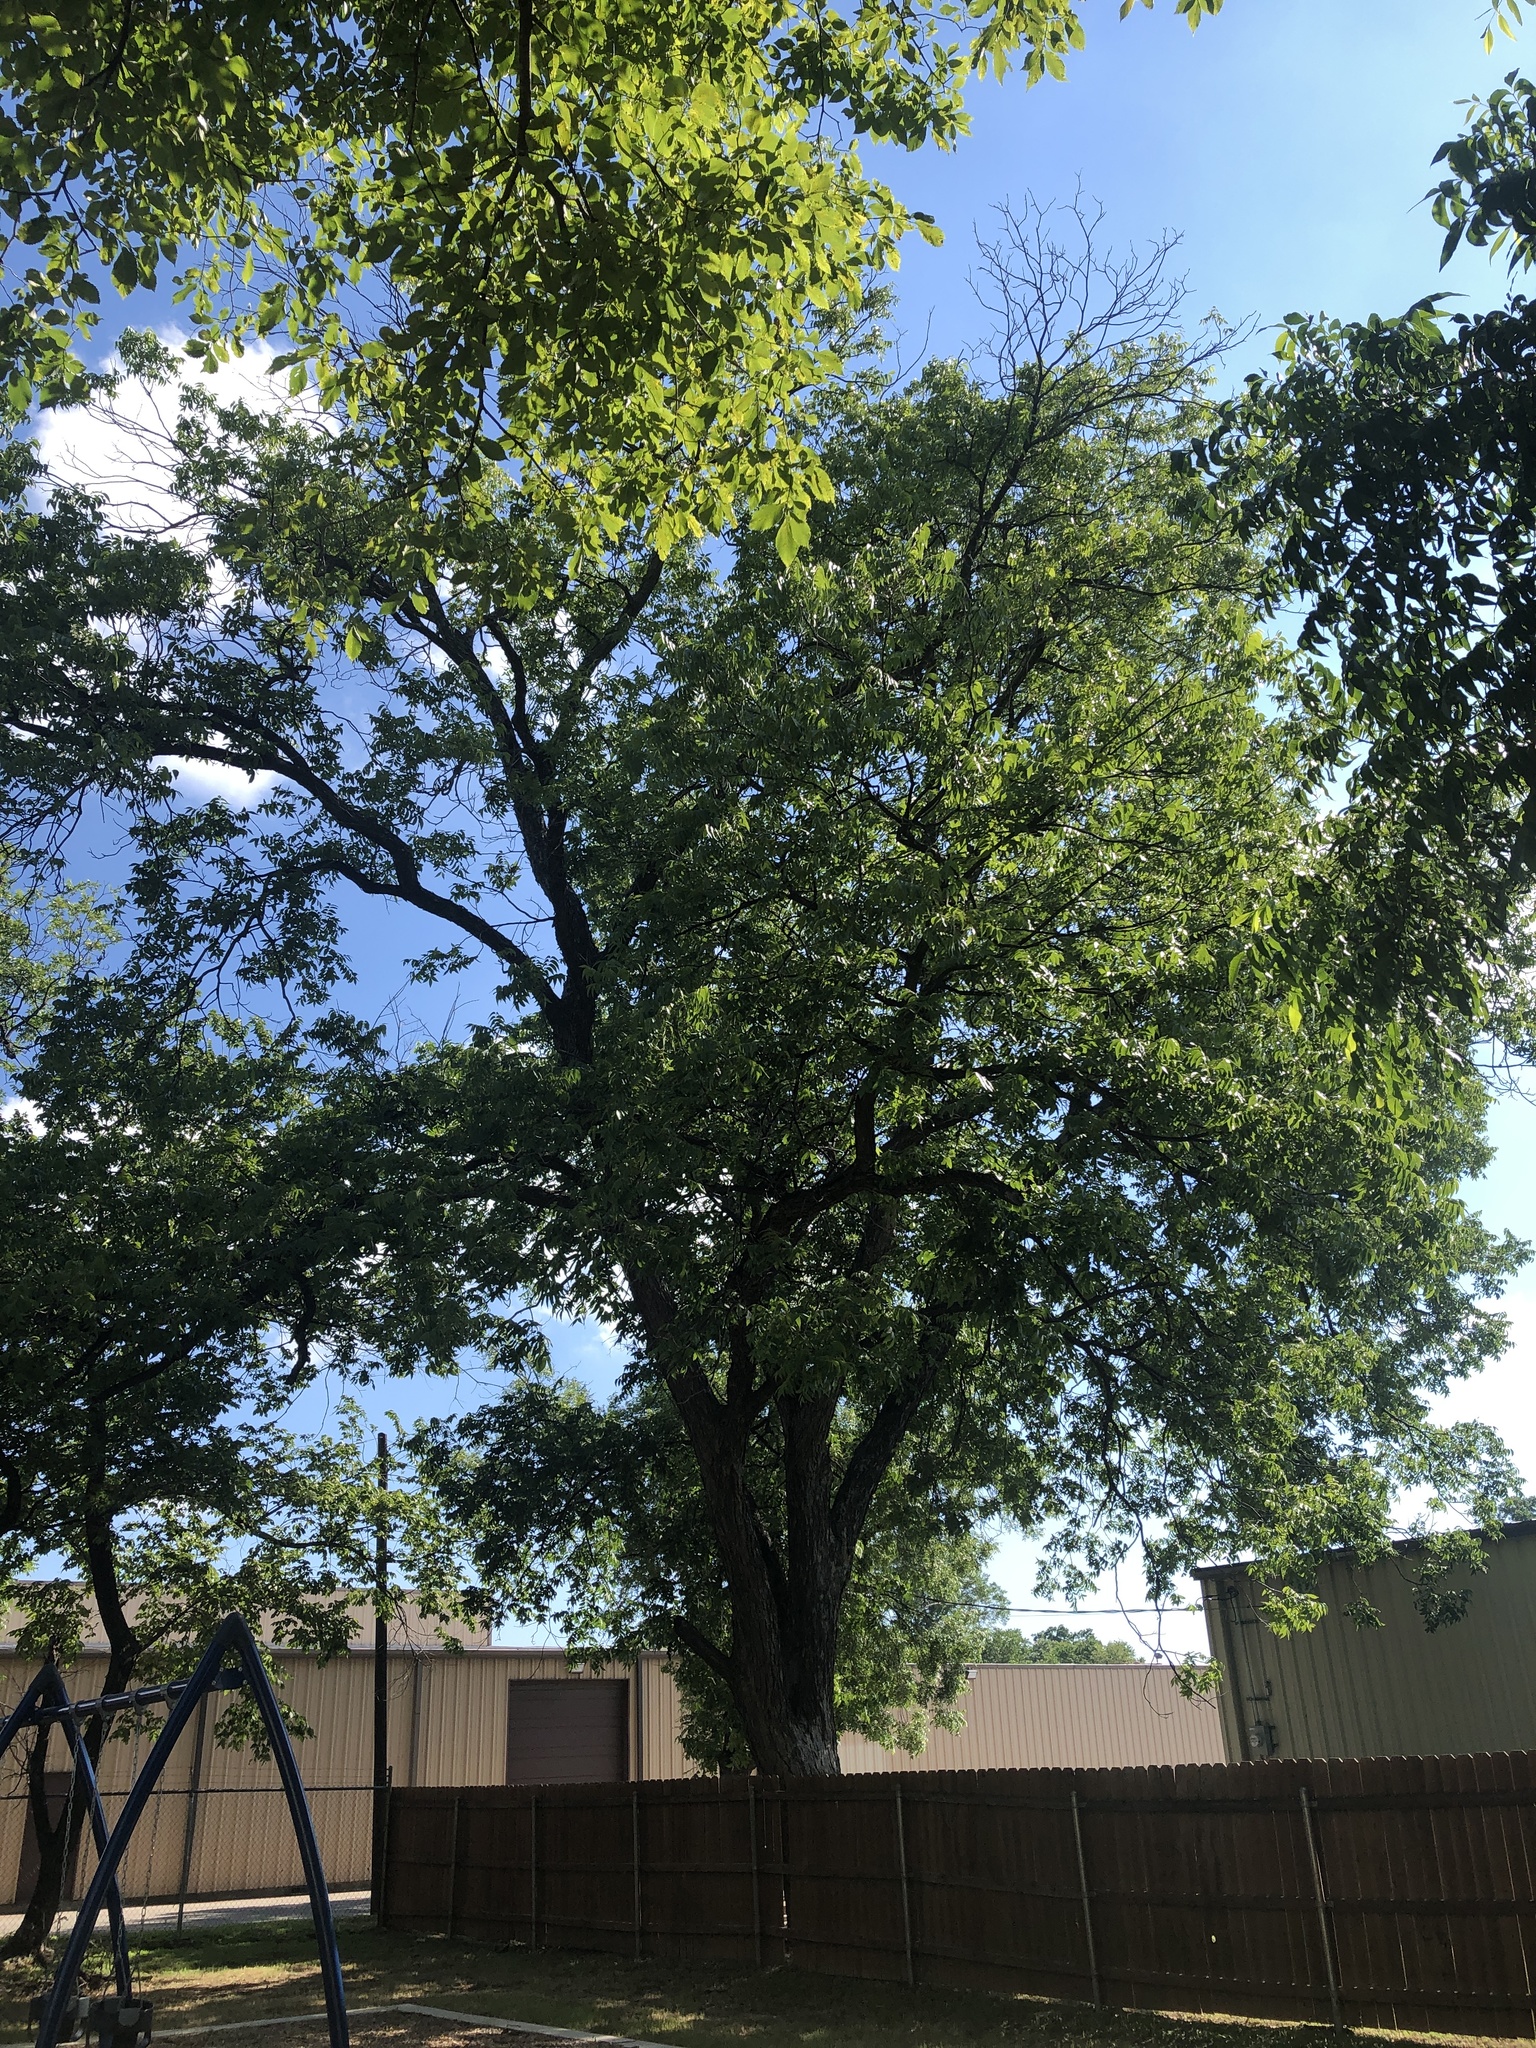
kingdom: Plantae
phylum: Tracheophyta
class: Magnoliopsida
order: Fagales
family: Juglandaceae
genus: Carya
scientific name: Carya illinoinensis
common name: Pecan
